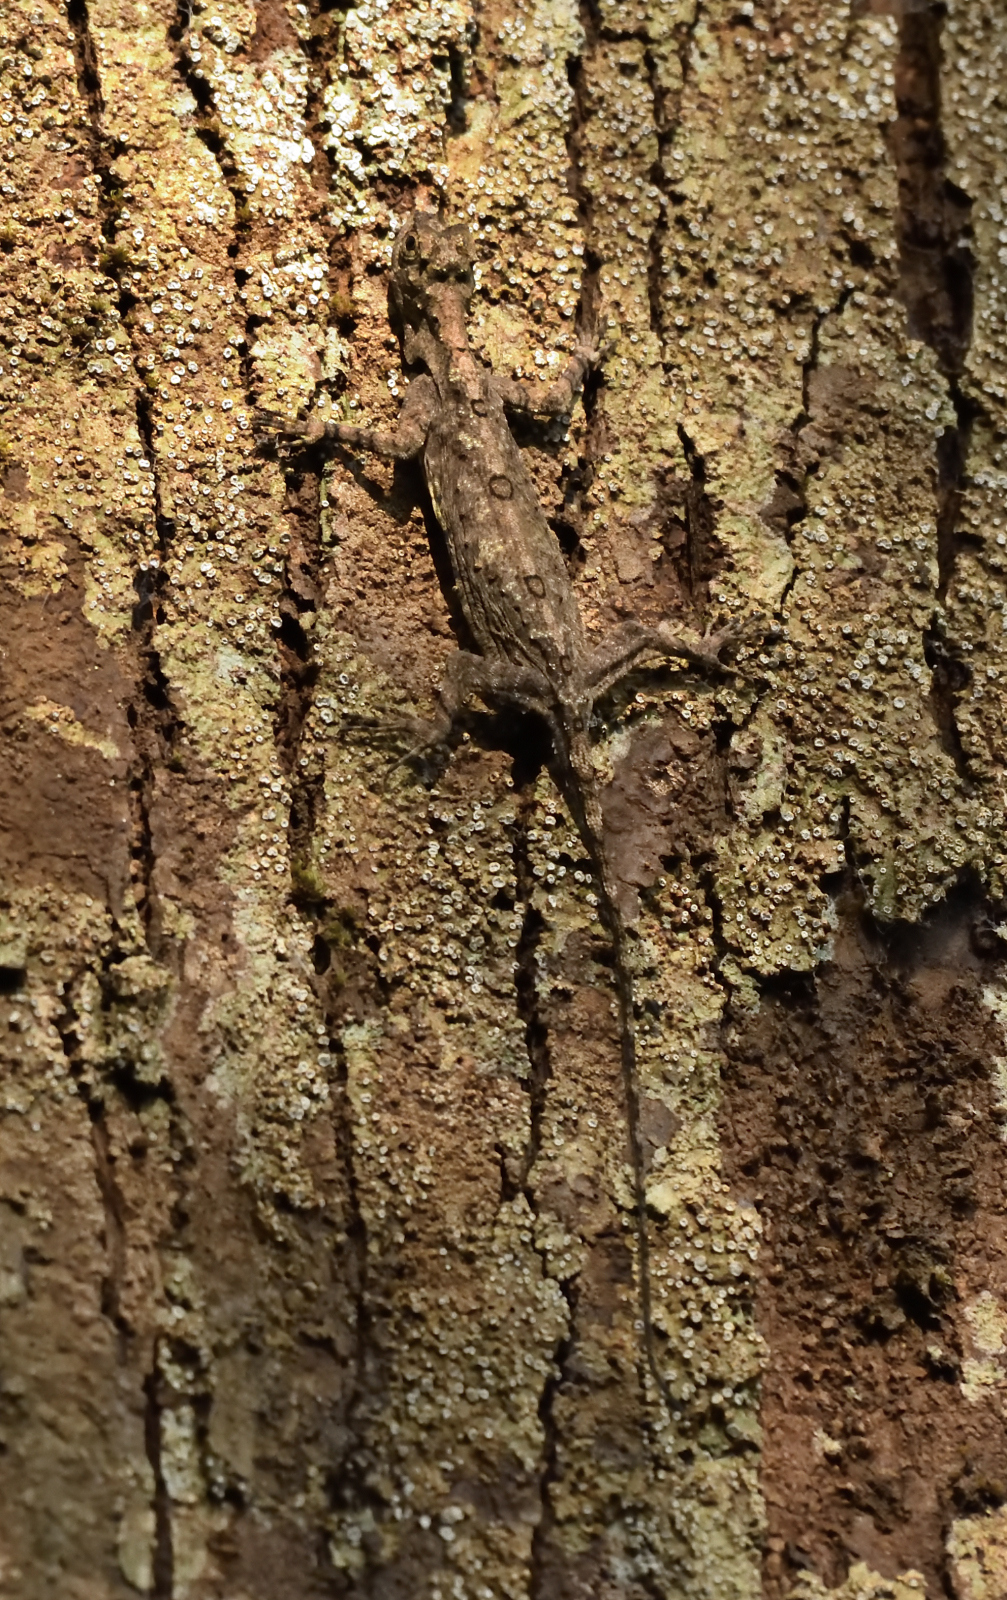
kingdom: Animalia
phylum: Chordata
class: Squamata
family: Agamidae
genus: Draco
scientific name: Draco dussumieri
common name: Southern flying lizard
